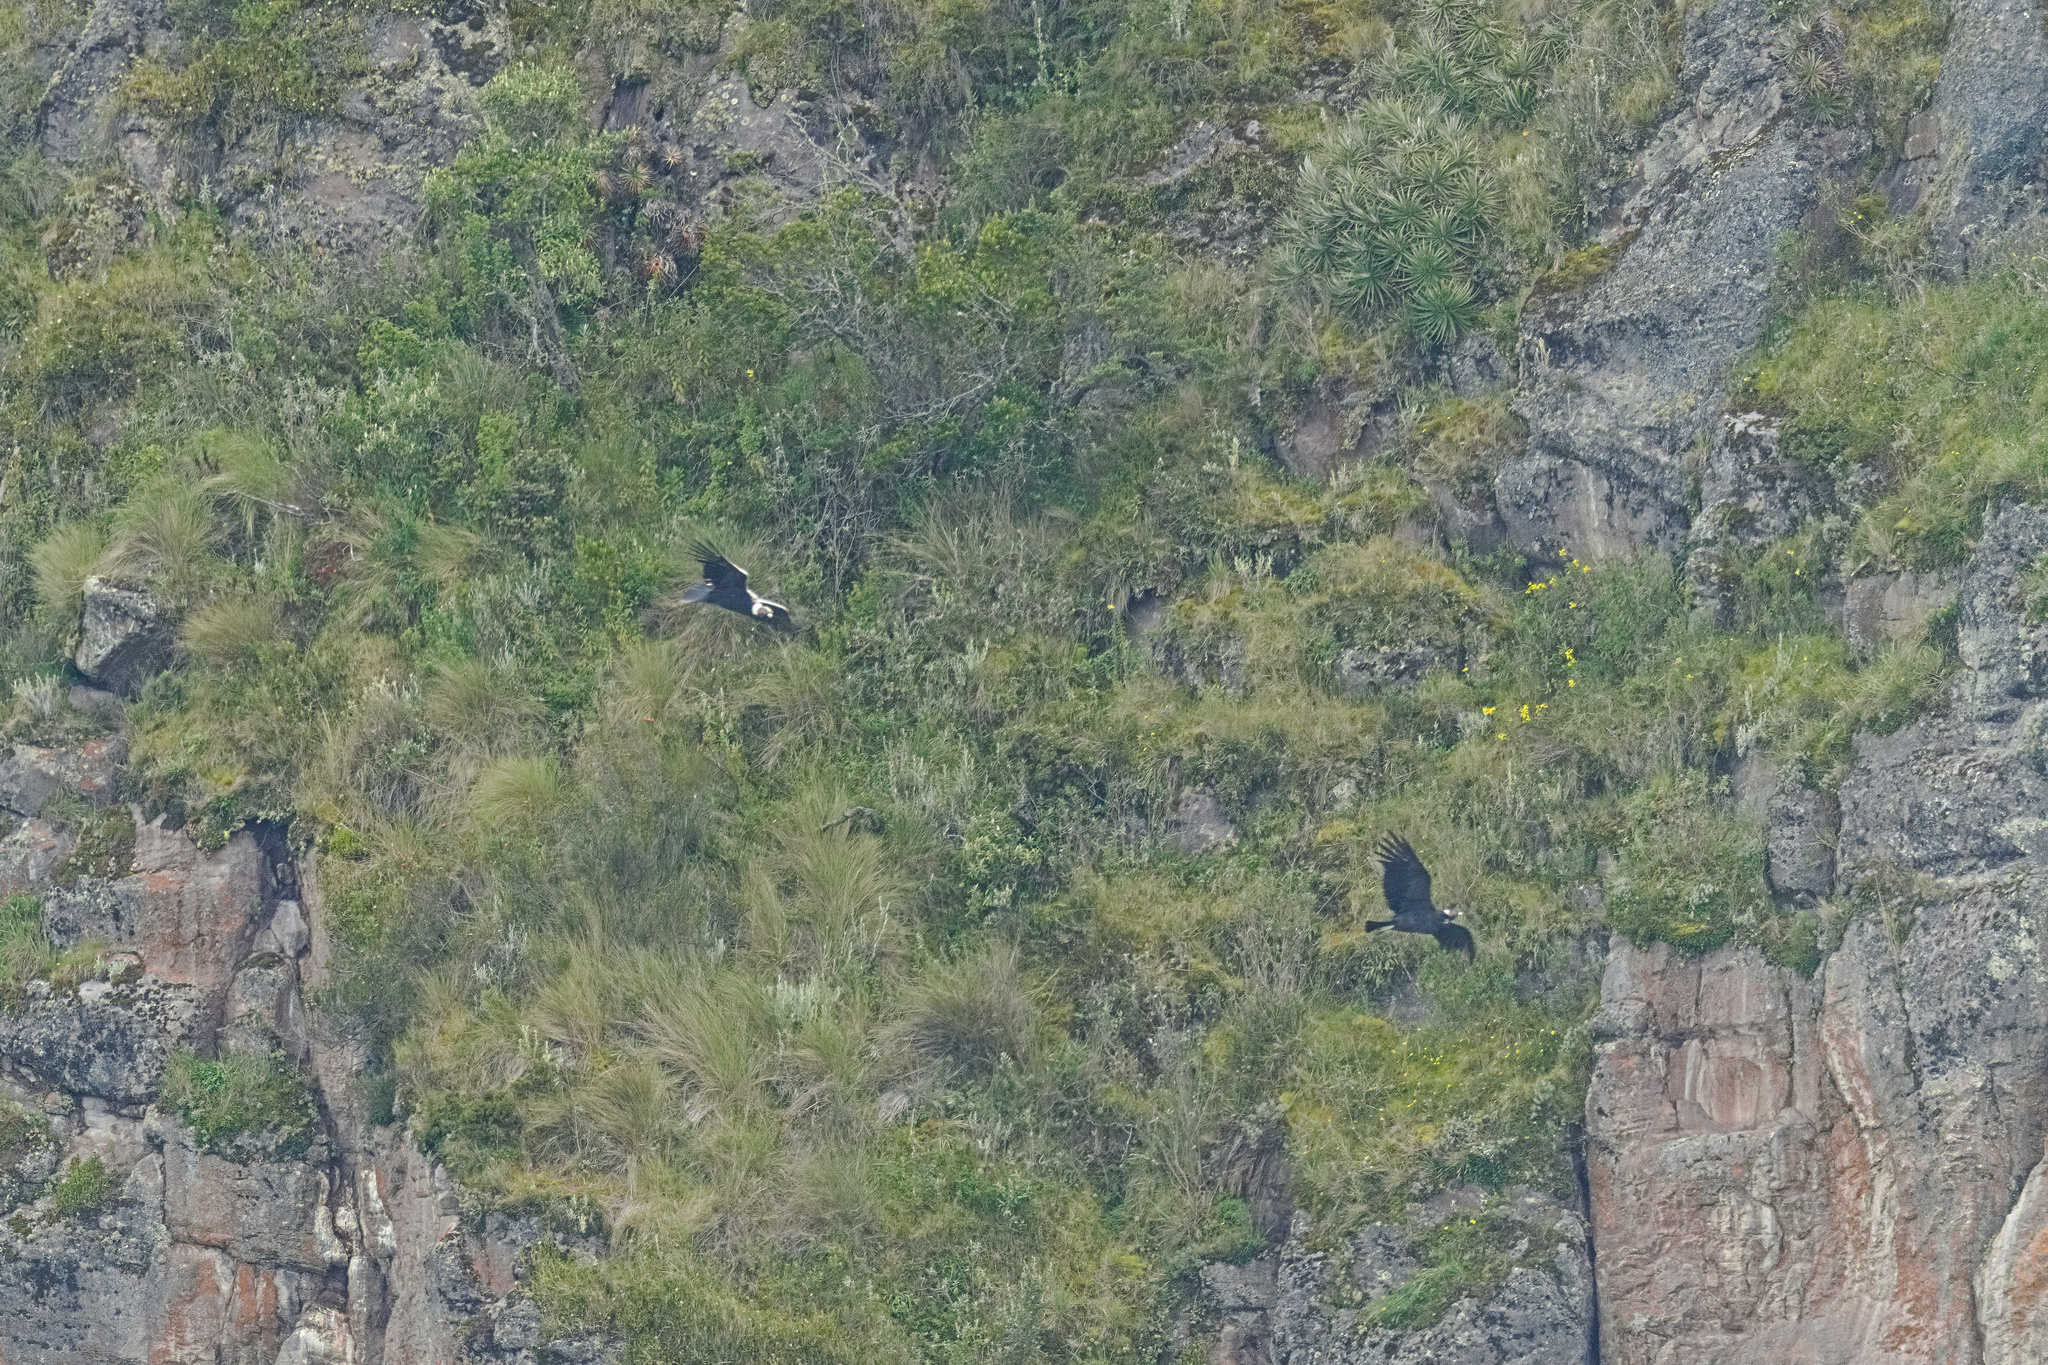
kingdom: Animalia
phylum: Chordata
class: Aves
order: Accipitriformes
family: Cathartidae
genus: Vultur
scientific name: Vultur gryphus
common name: Andean condor
